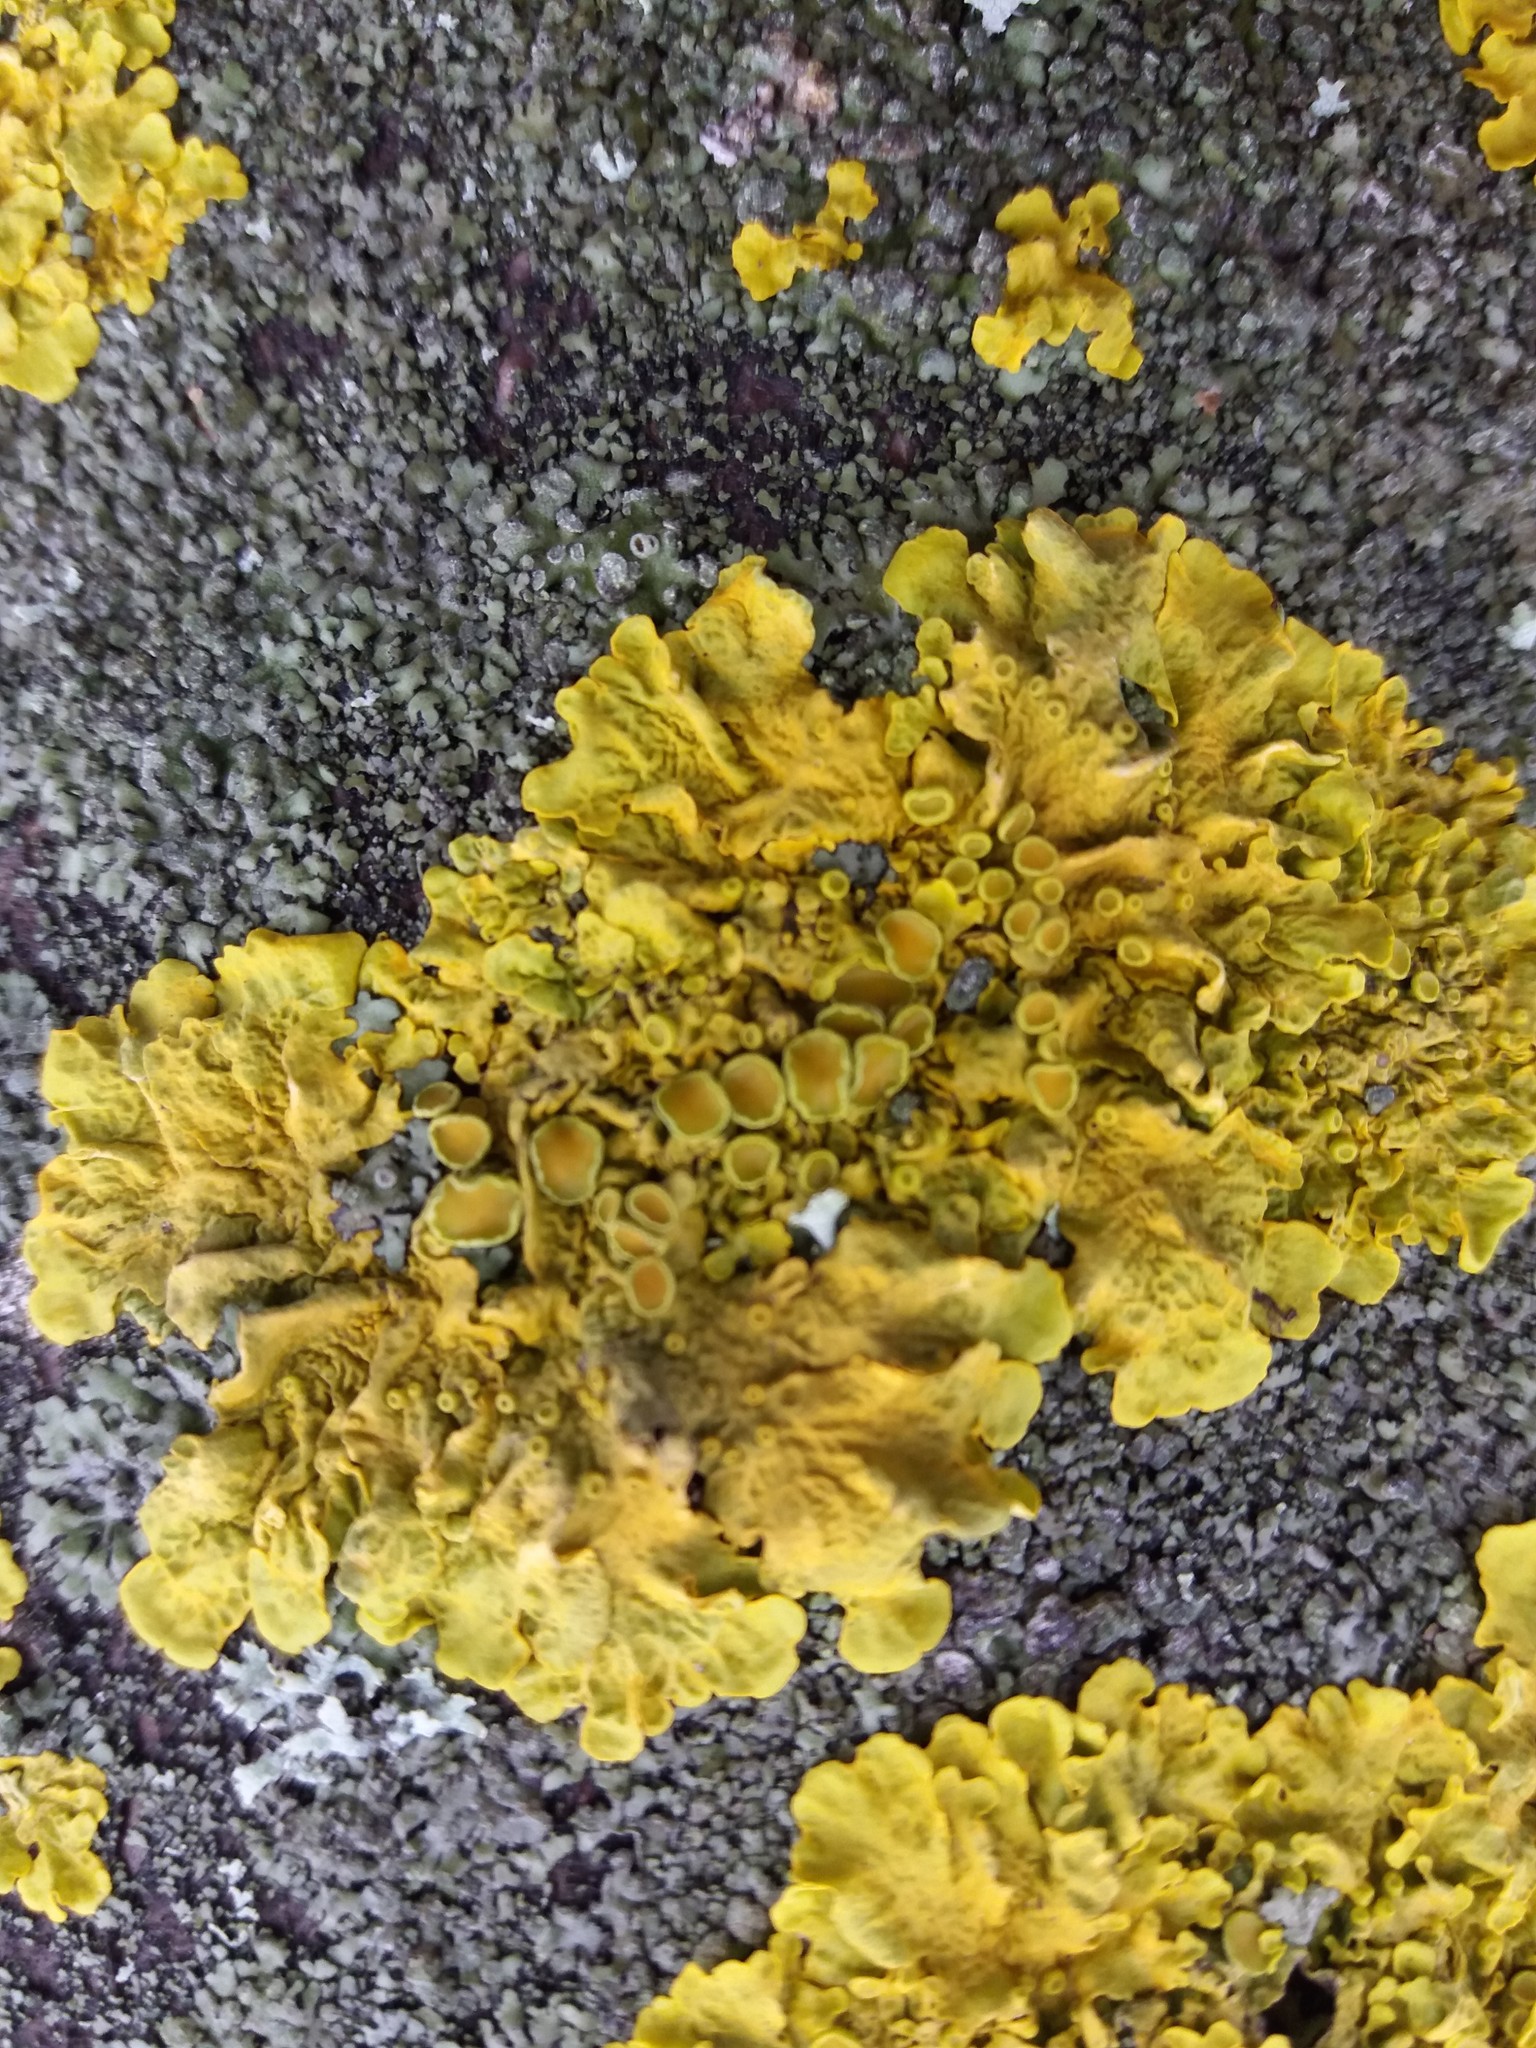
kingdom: Fungi
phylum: Ascomycota
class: Lecanoromycetes
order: Teloschistales
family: Teloschistaceae
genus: Xanthoria
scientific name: Xanthoria parietina
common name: Common orange lichen
